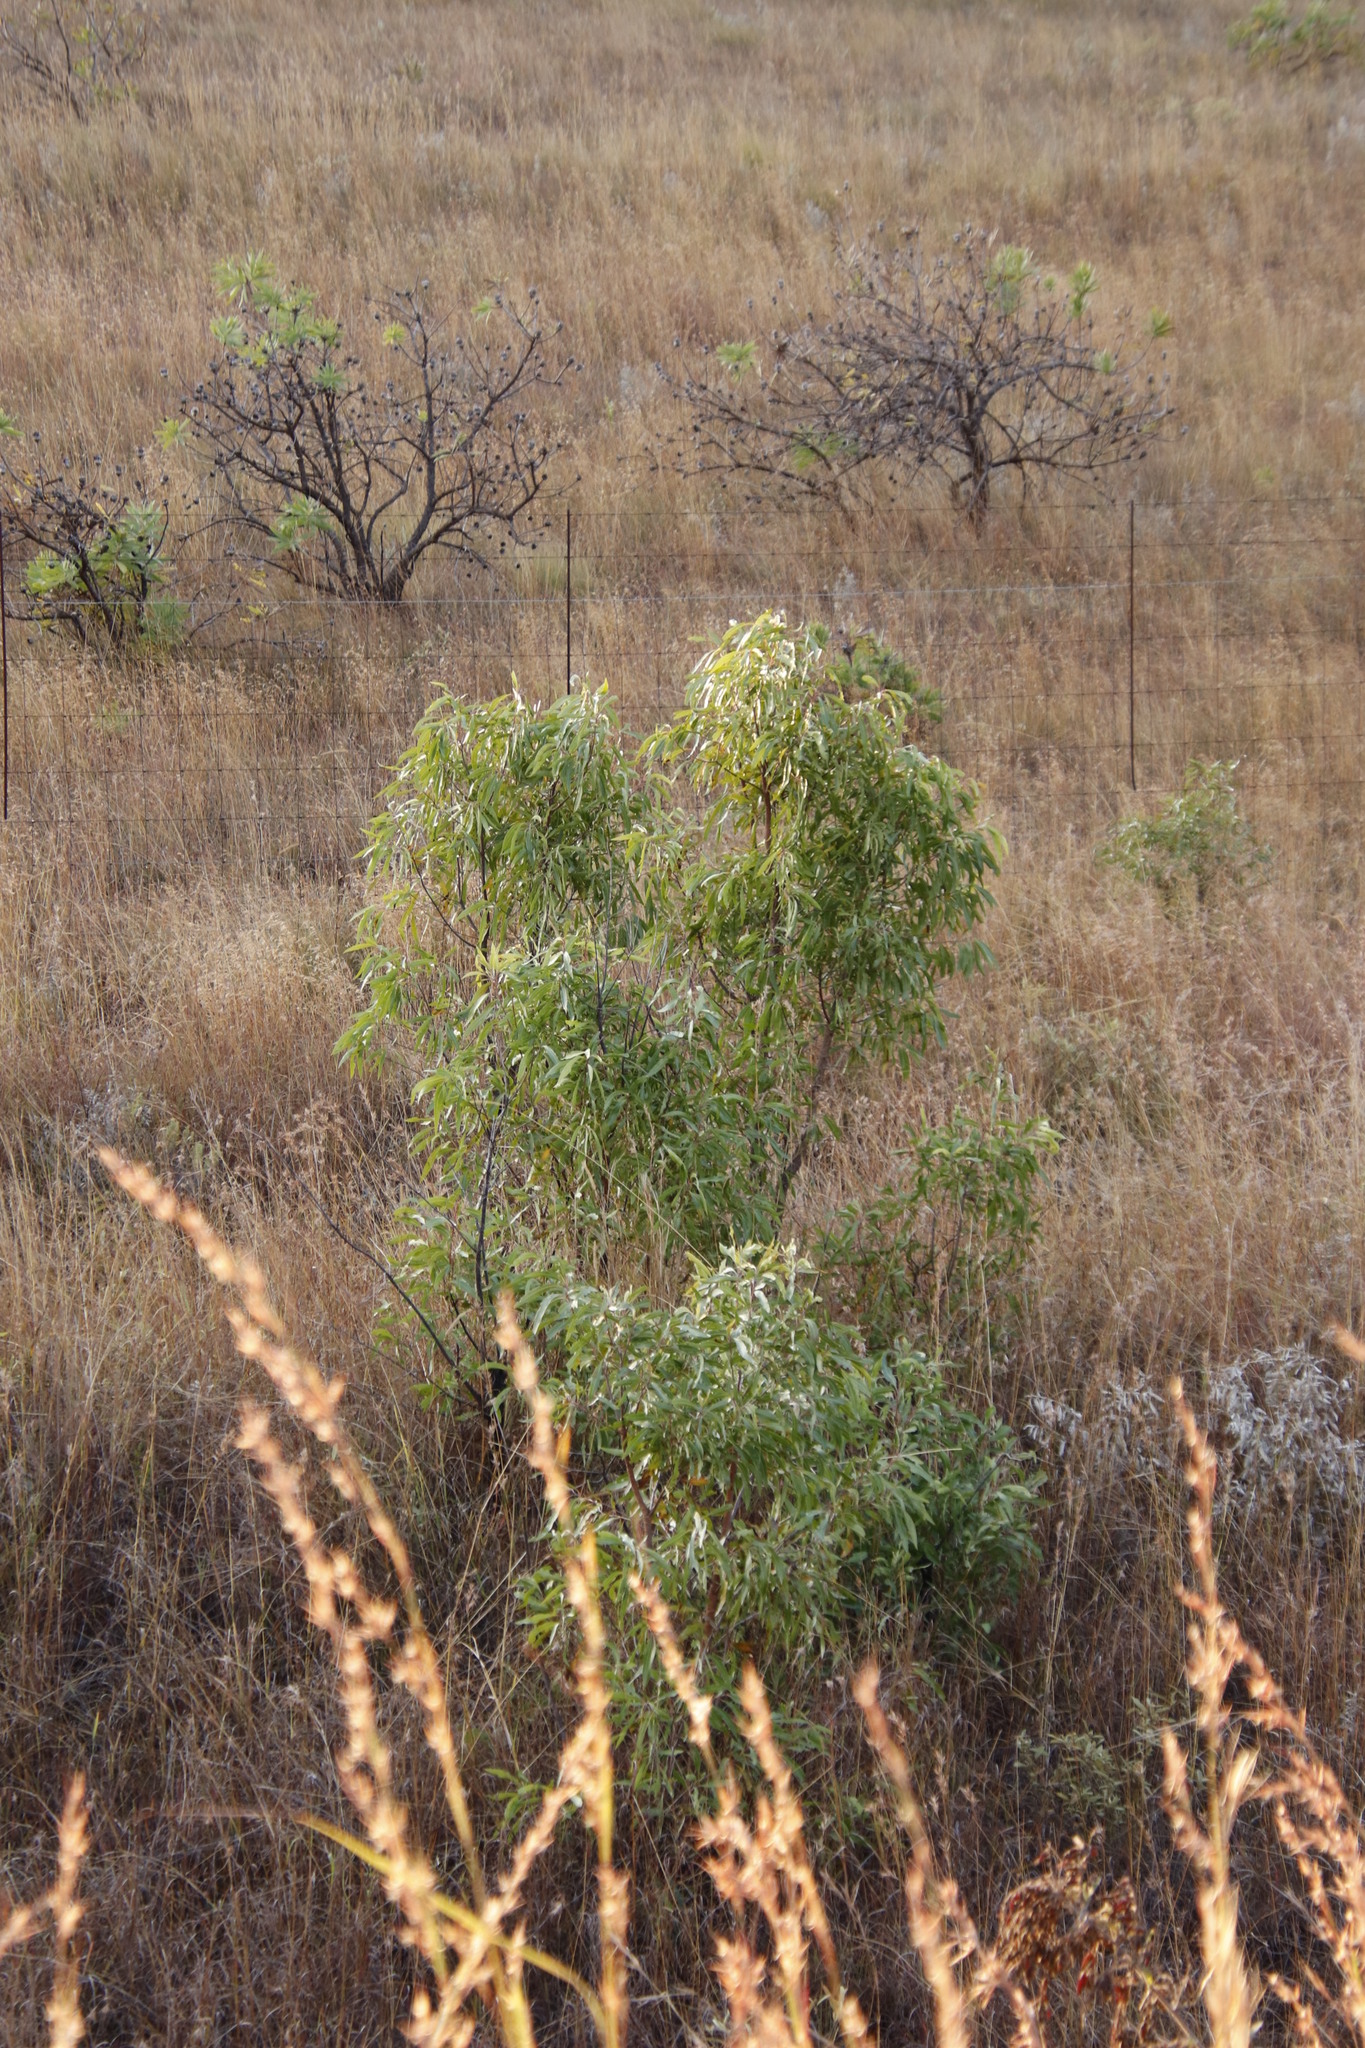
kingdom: Plantae
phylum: Tracheophyta
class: Magnoliopsida
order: Proteales
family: Proteaceae
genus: Faurea
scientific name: Faurea saligna
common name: African bean
